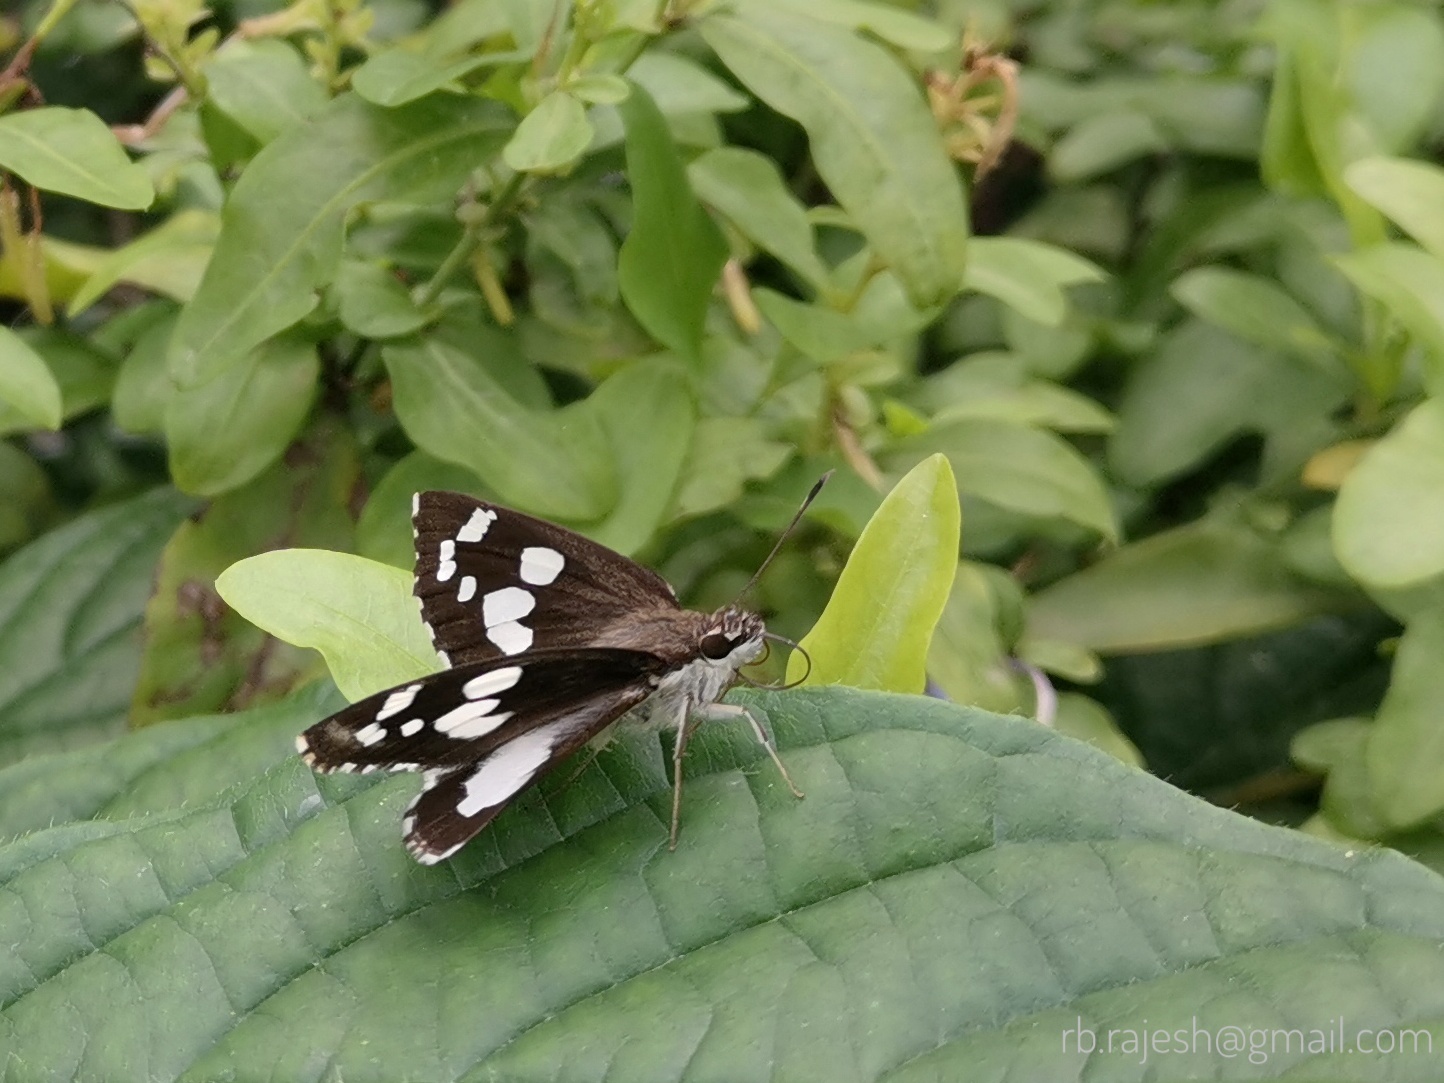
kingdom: Animalia
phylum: Arthropoda
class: Insecta
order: Lepidoptera
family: Hesperiidae
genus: Udaspes
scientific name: Udaspes folus
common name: Grass demon
